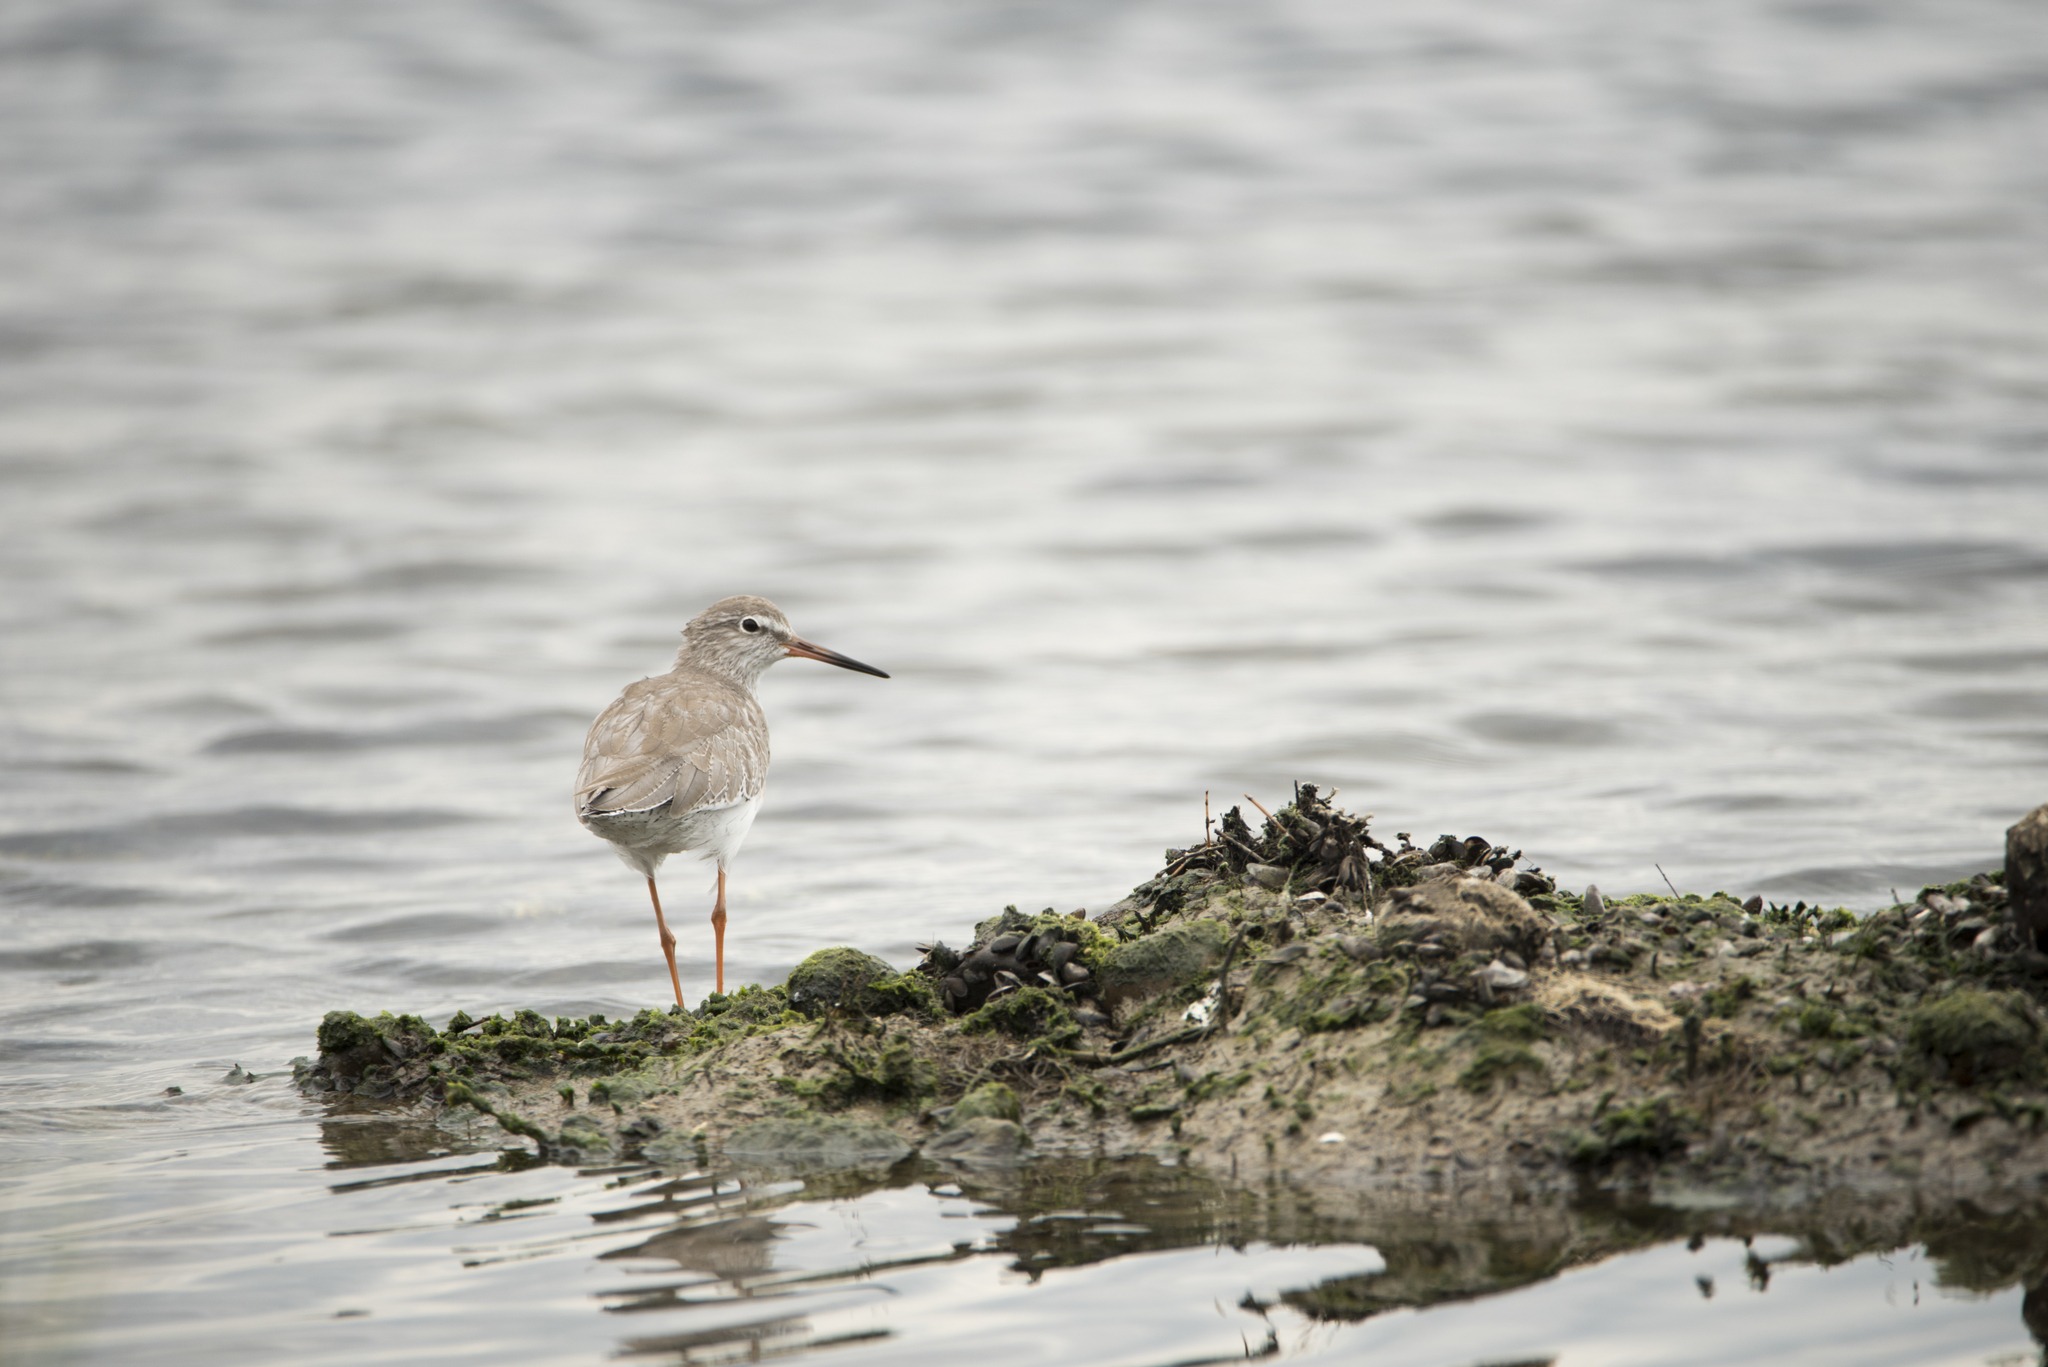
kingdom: Animalia
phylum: Chordata
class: Aves
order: Charadriiformes
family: Scolopacidae
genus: Tringa
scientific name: Tringa totanus
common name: Common redshank
